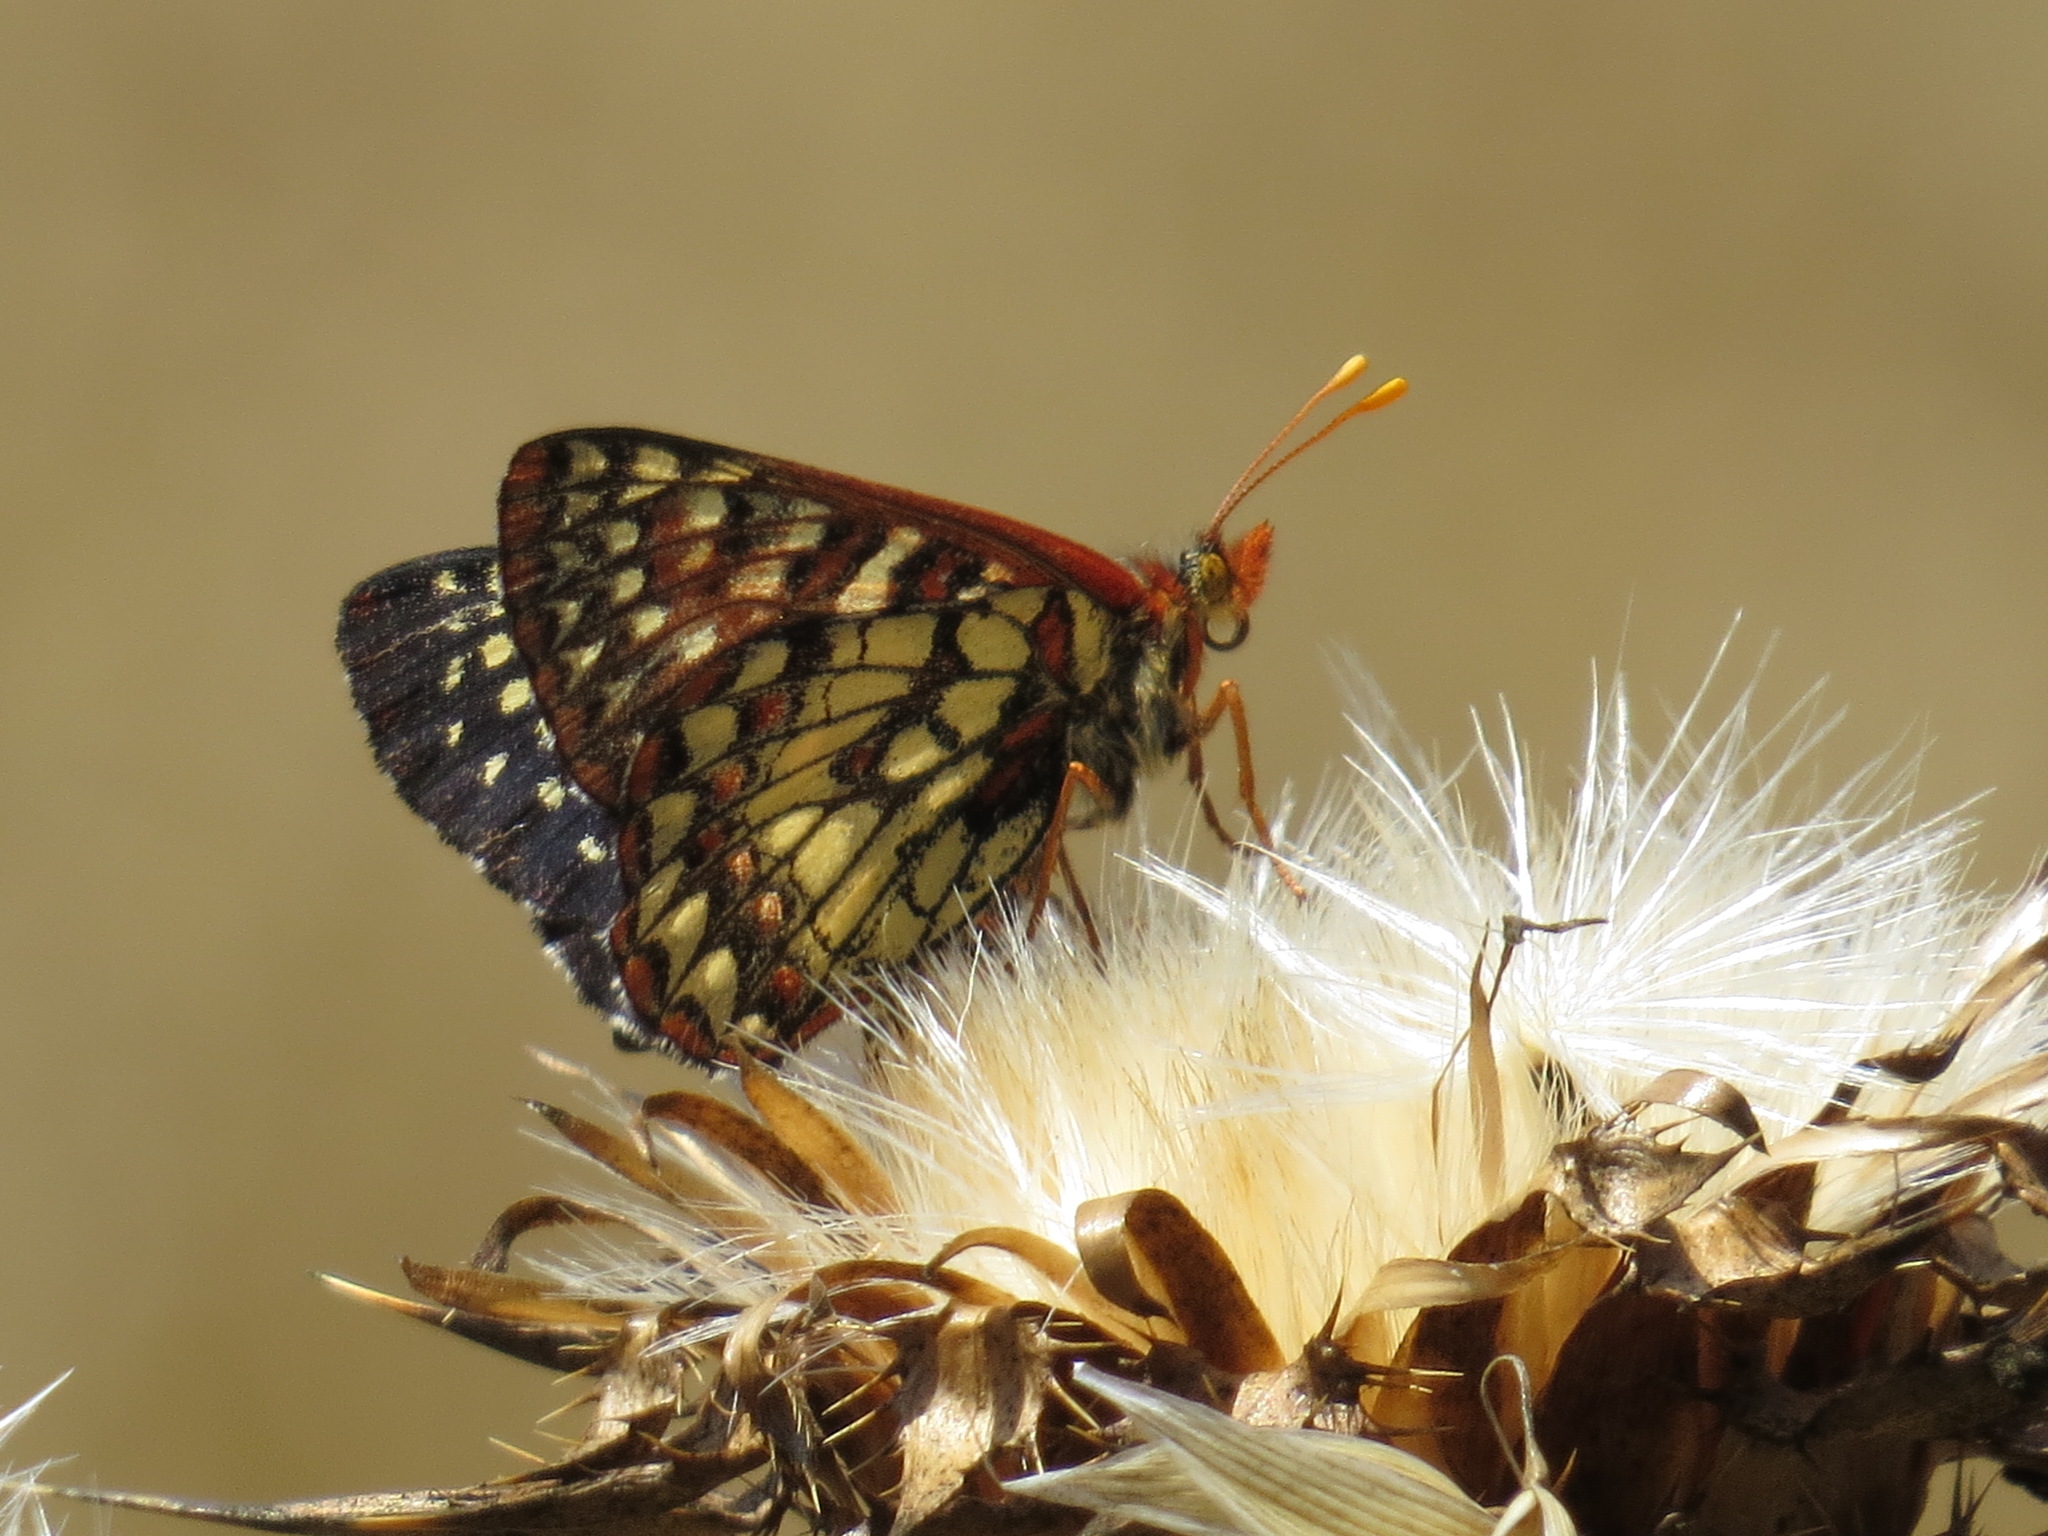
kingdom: Animalia
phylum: Arthropoda
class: Insecta
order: Lepidoptera
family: Nymphalidae
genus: Occidryas
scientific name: Occidryas chalcedona
